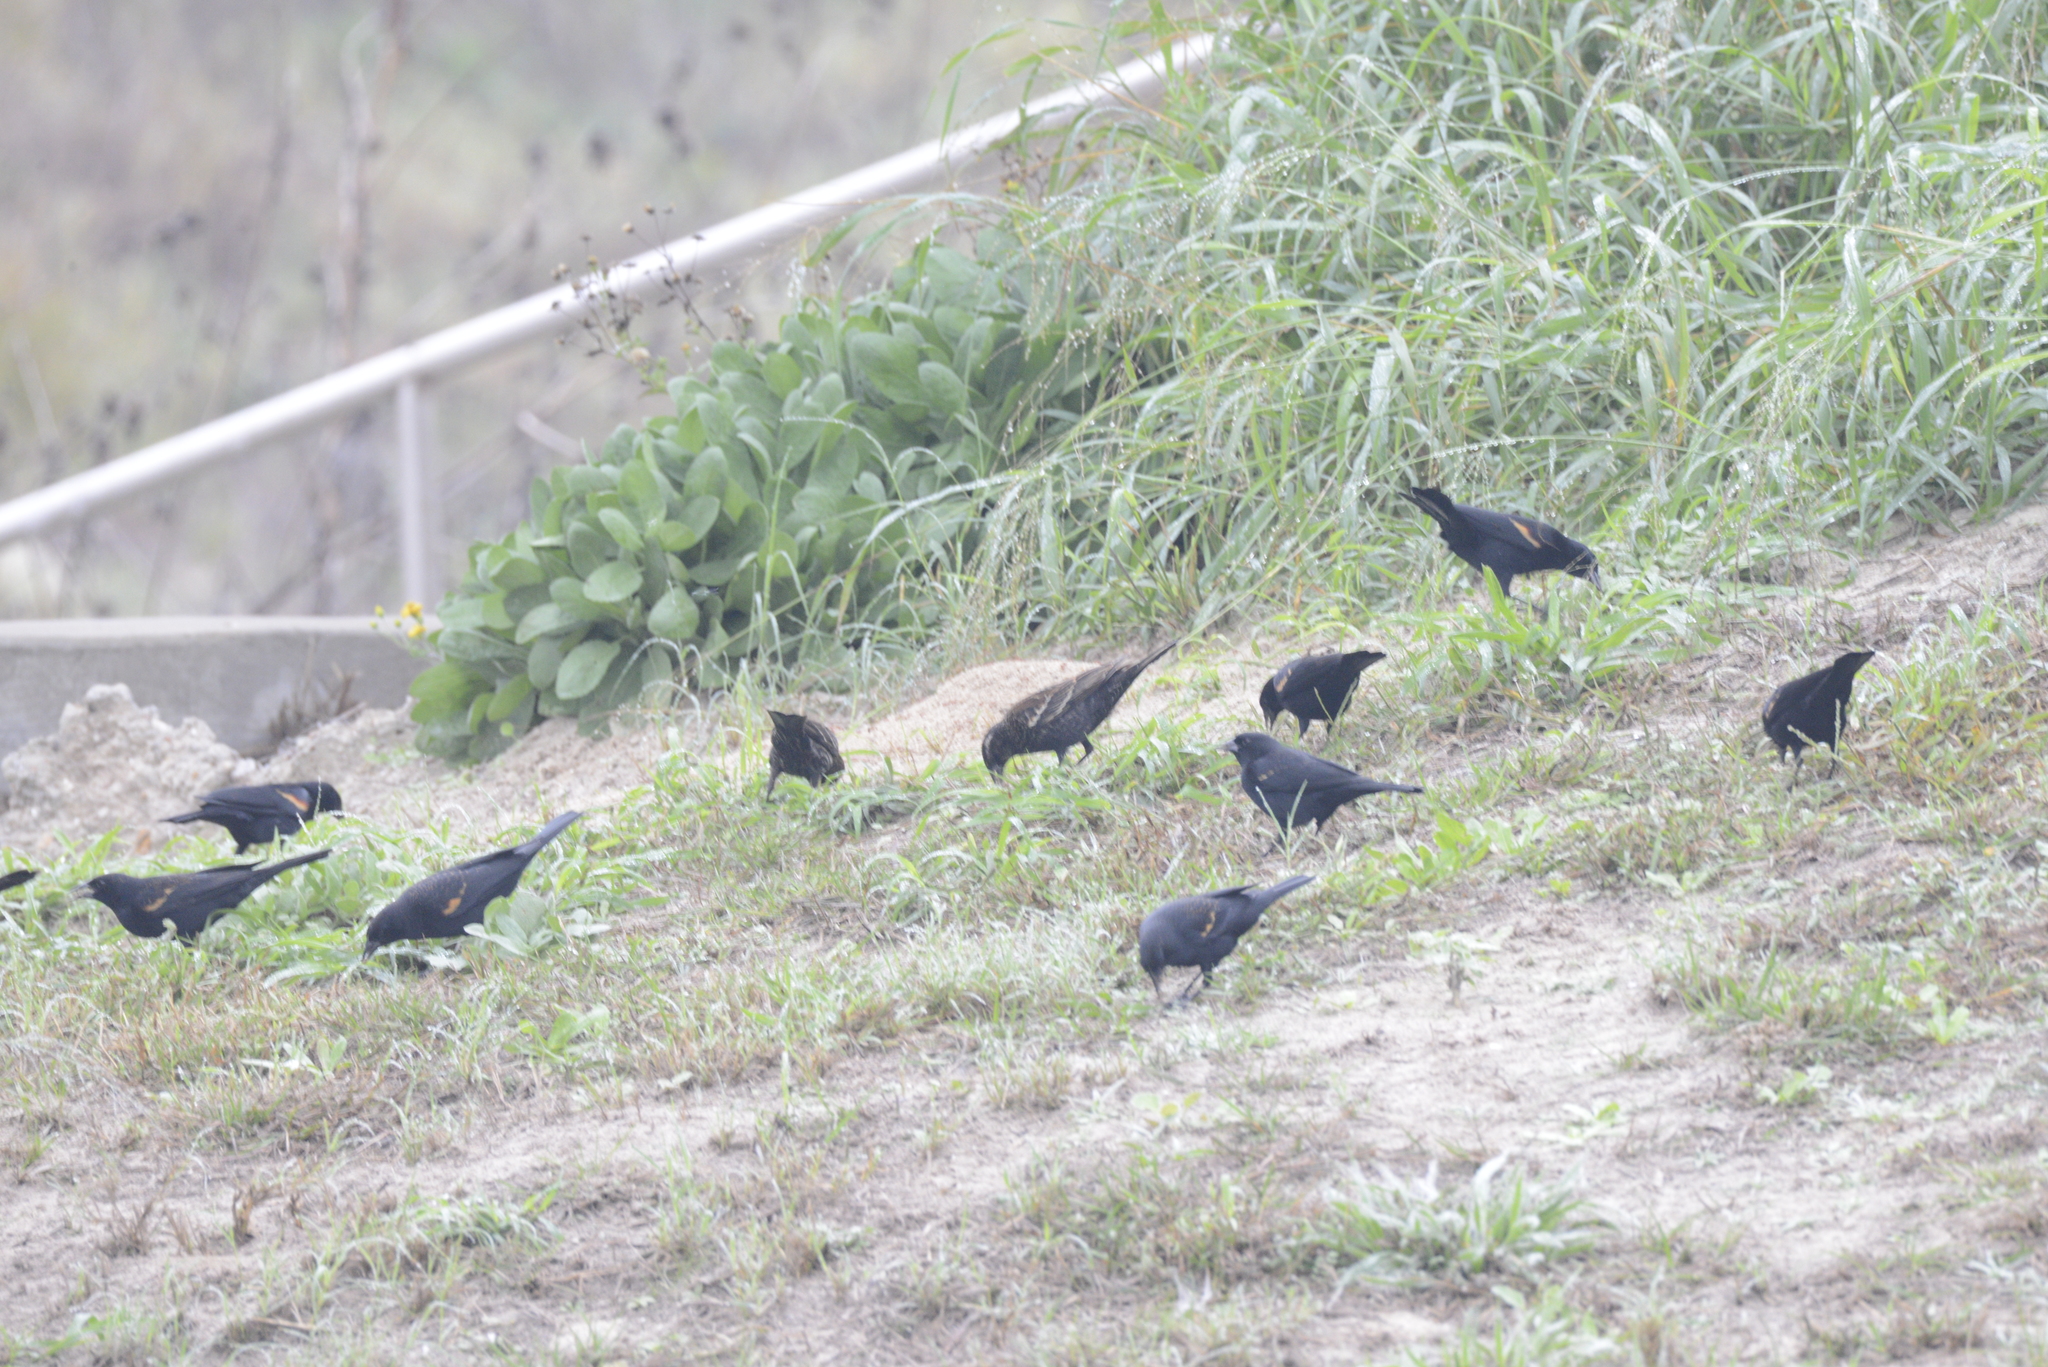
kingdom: Animalia
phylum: Chordata
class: Aves
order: Passeriformes
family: Icteridae
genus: Agelaius
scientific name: Agelaius phoeniceus
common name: Red-winged blackbird
